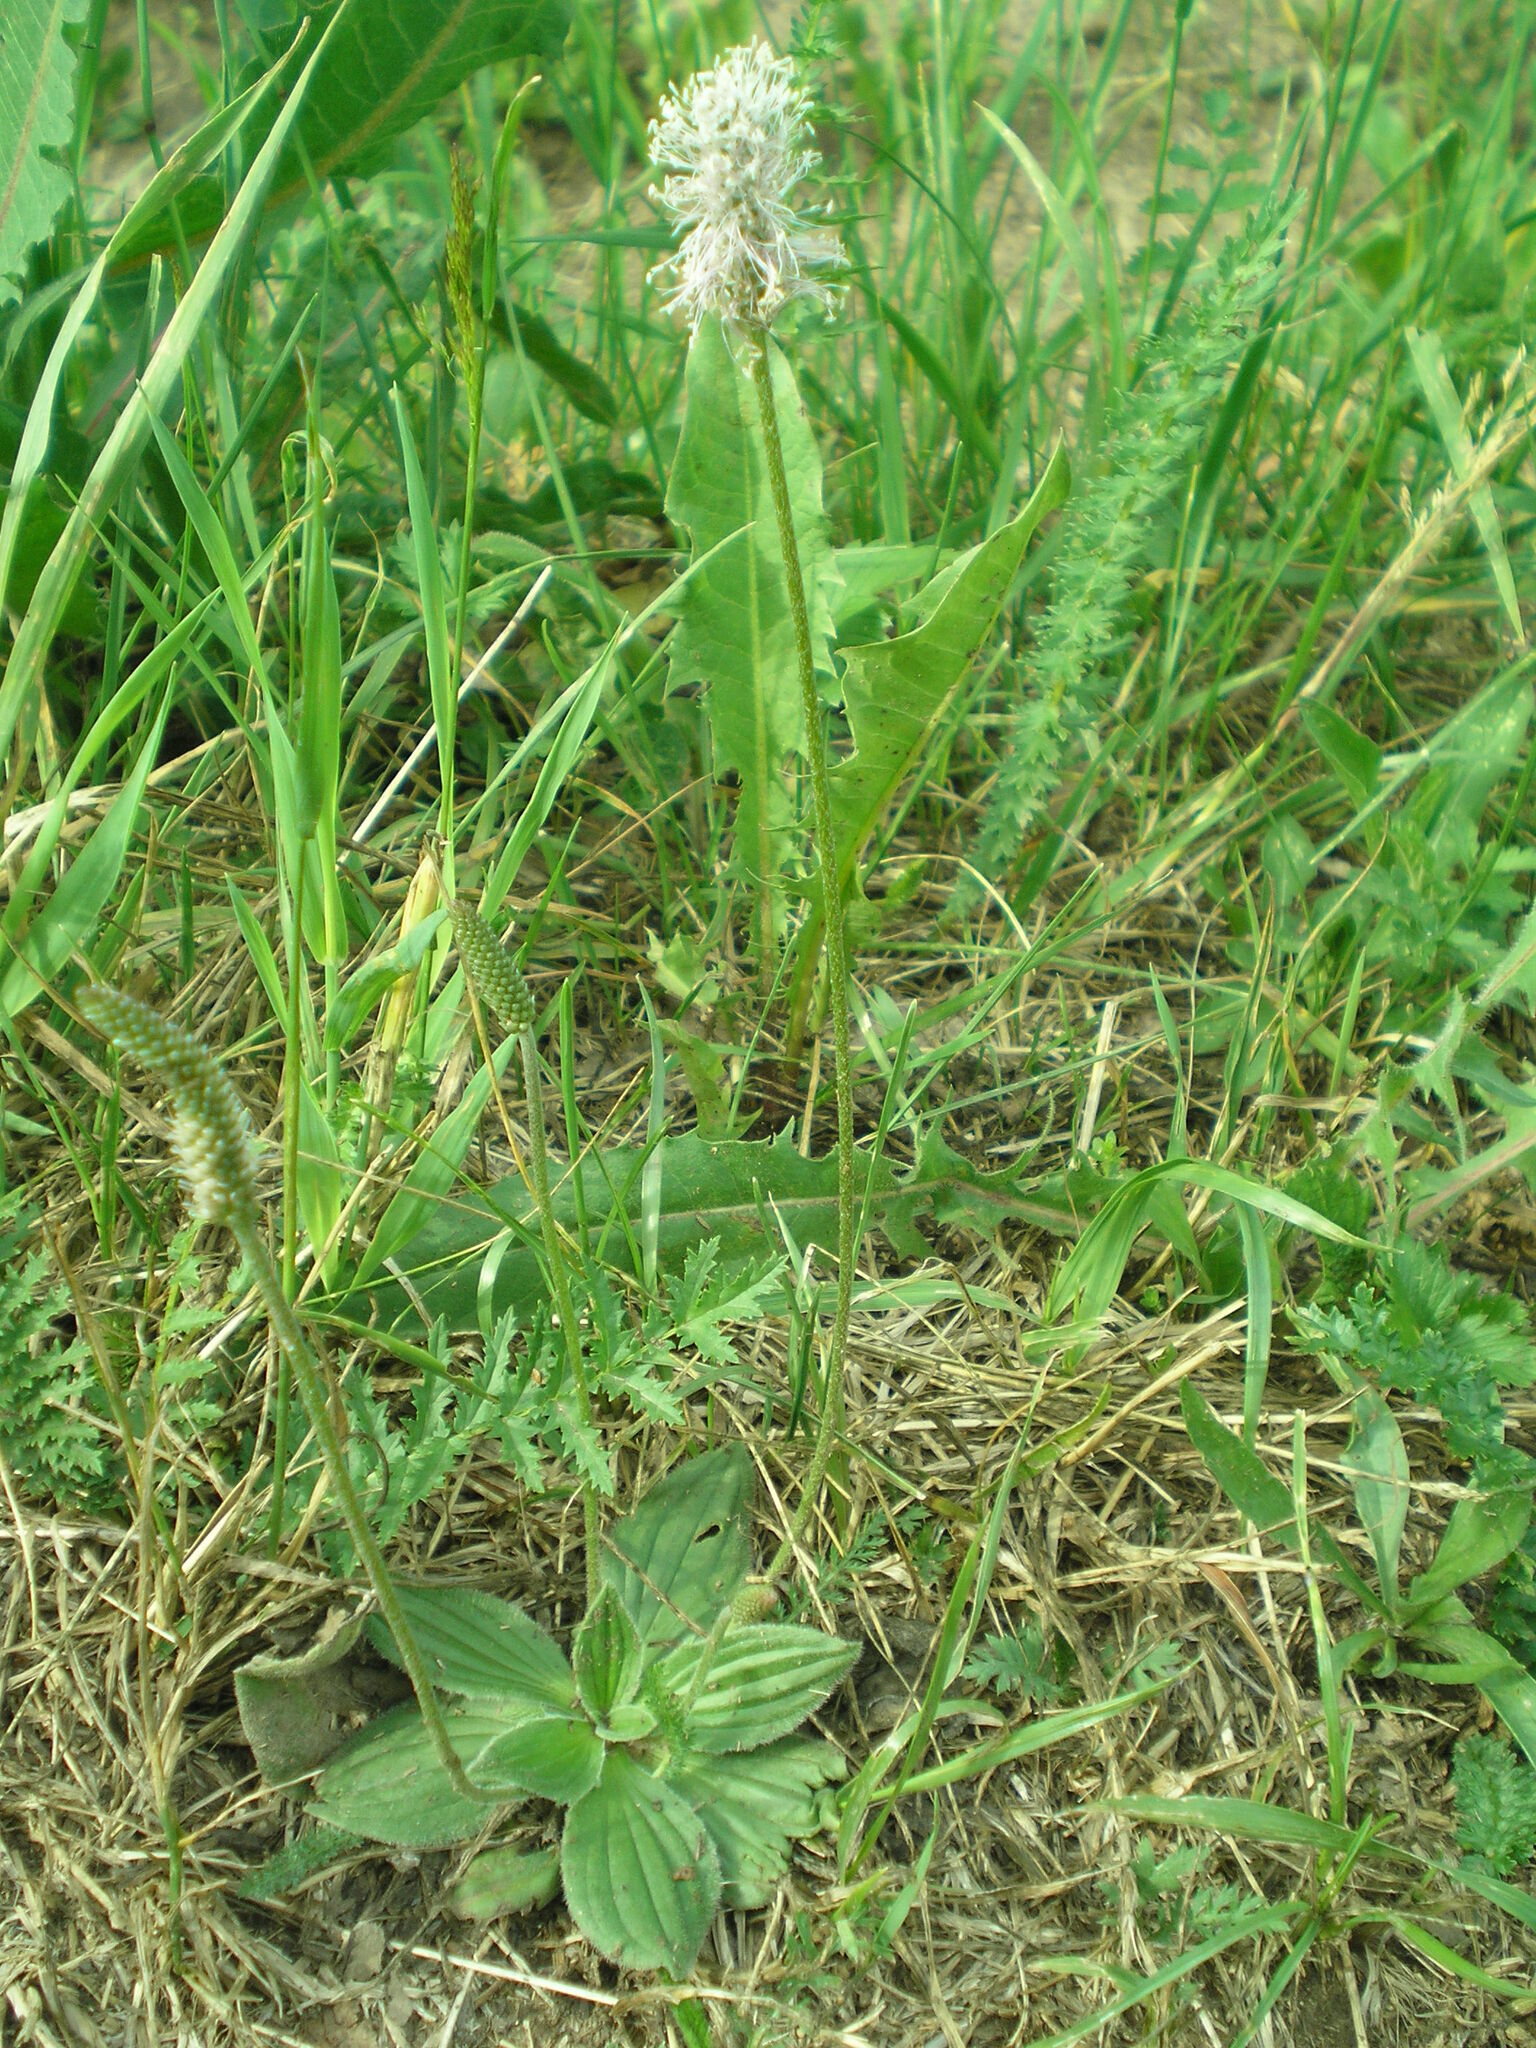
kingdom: Plantae
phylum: Tracheophyta
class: Magnoliopsida
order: Lamiales
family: Plantaginaceae
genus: Plantago
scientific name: Plantago media
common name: Hoary plantain
